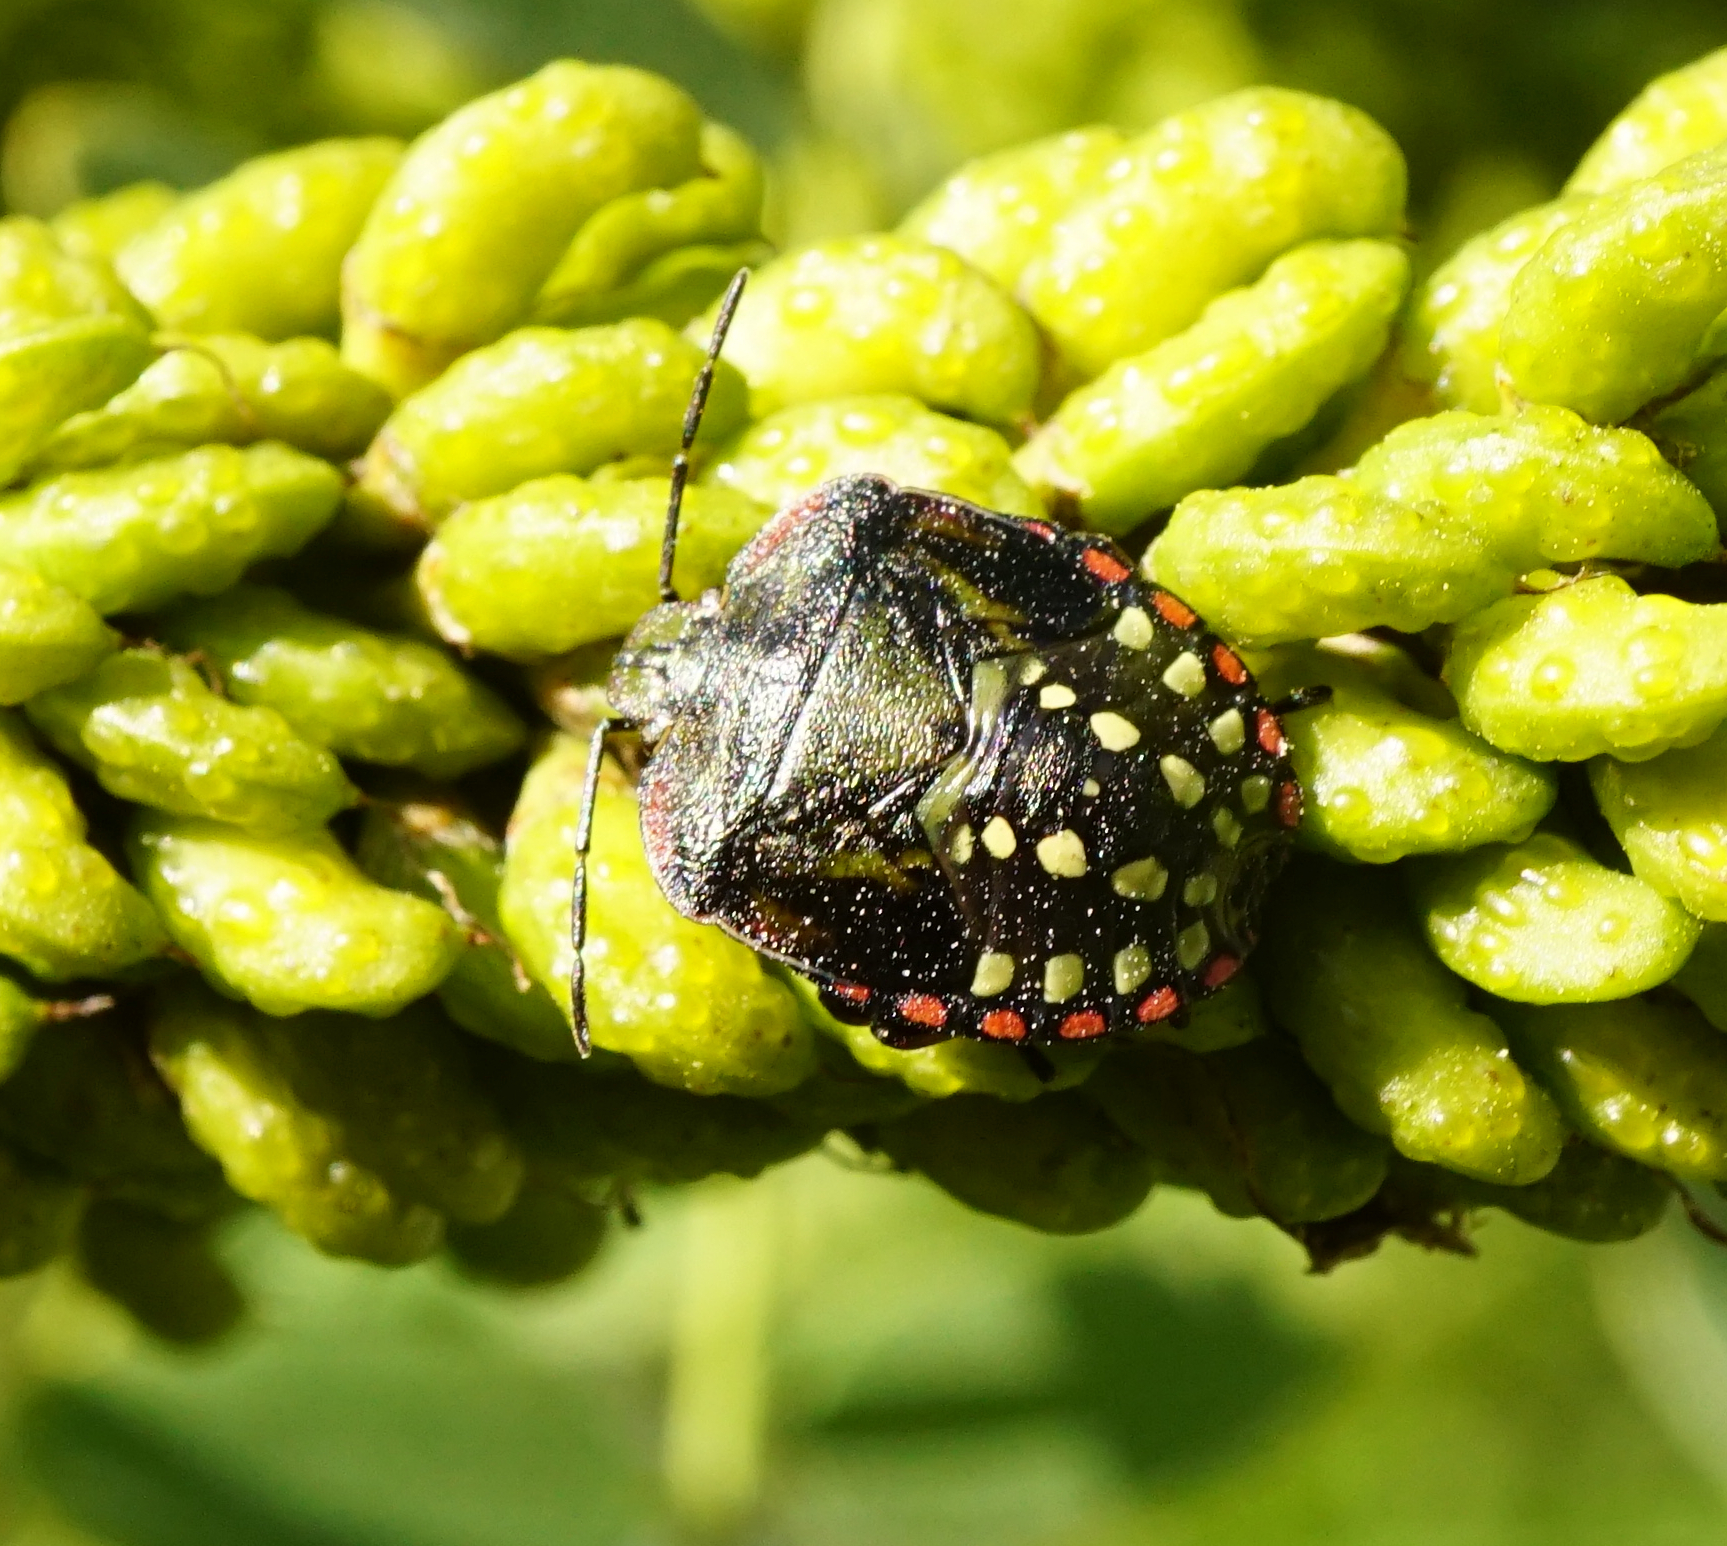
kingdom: Animalia
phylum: Arthropoda
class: Insecta
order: Hemiptera
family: Pentatomidae
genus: Nezara
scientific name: Nezara viridula
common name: Southern green stink bug
